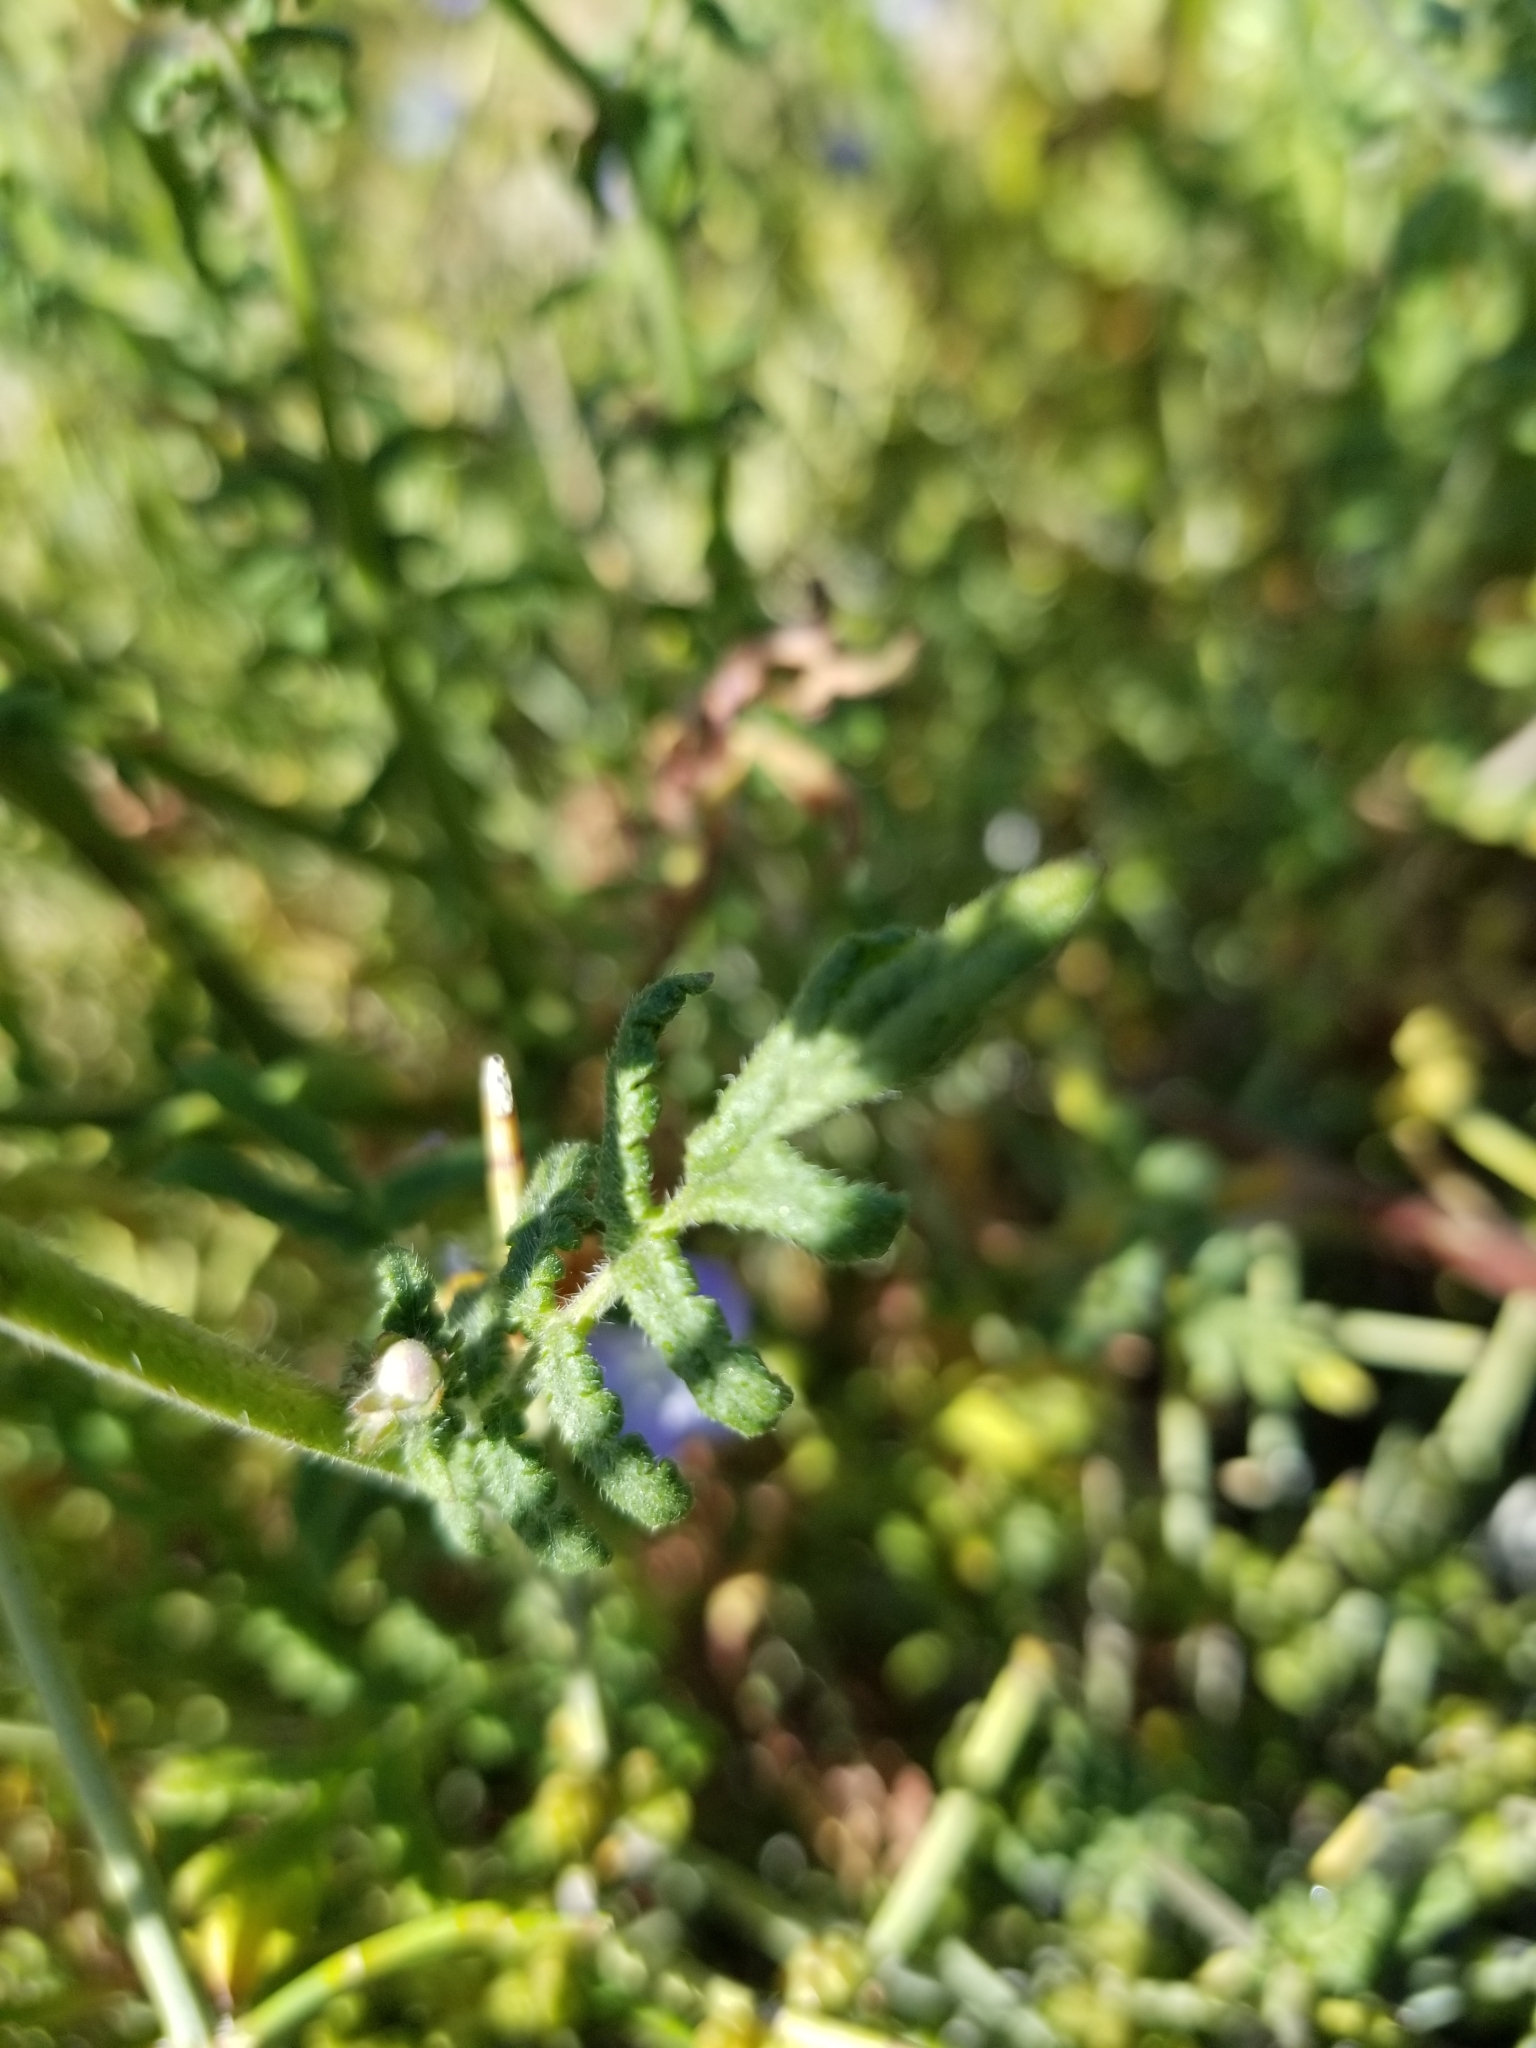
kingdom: Plantae
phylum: Tracheophyta
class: Magnoliopsida
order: Boraginales
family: Hydrophyllaceae
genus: Phacelia
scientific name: Phacelia distans
